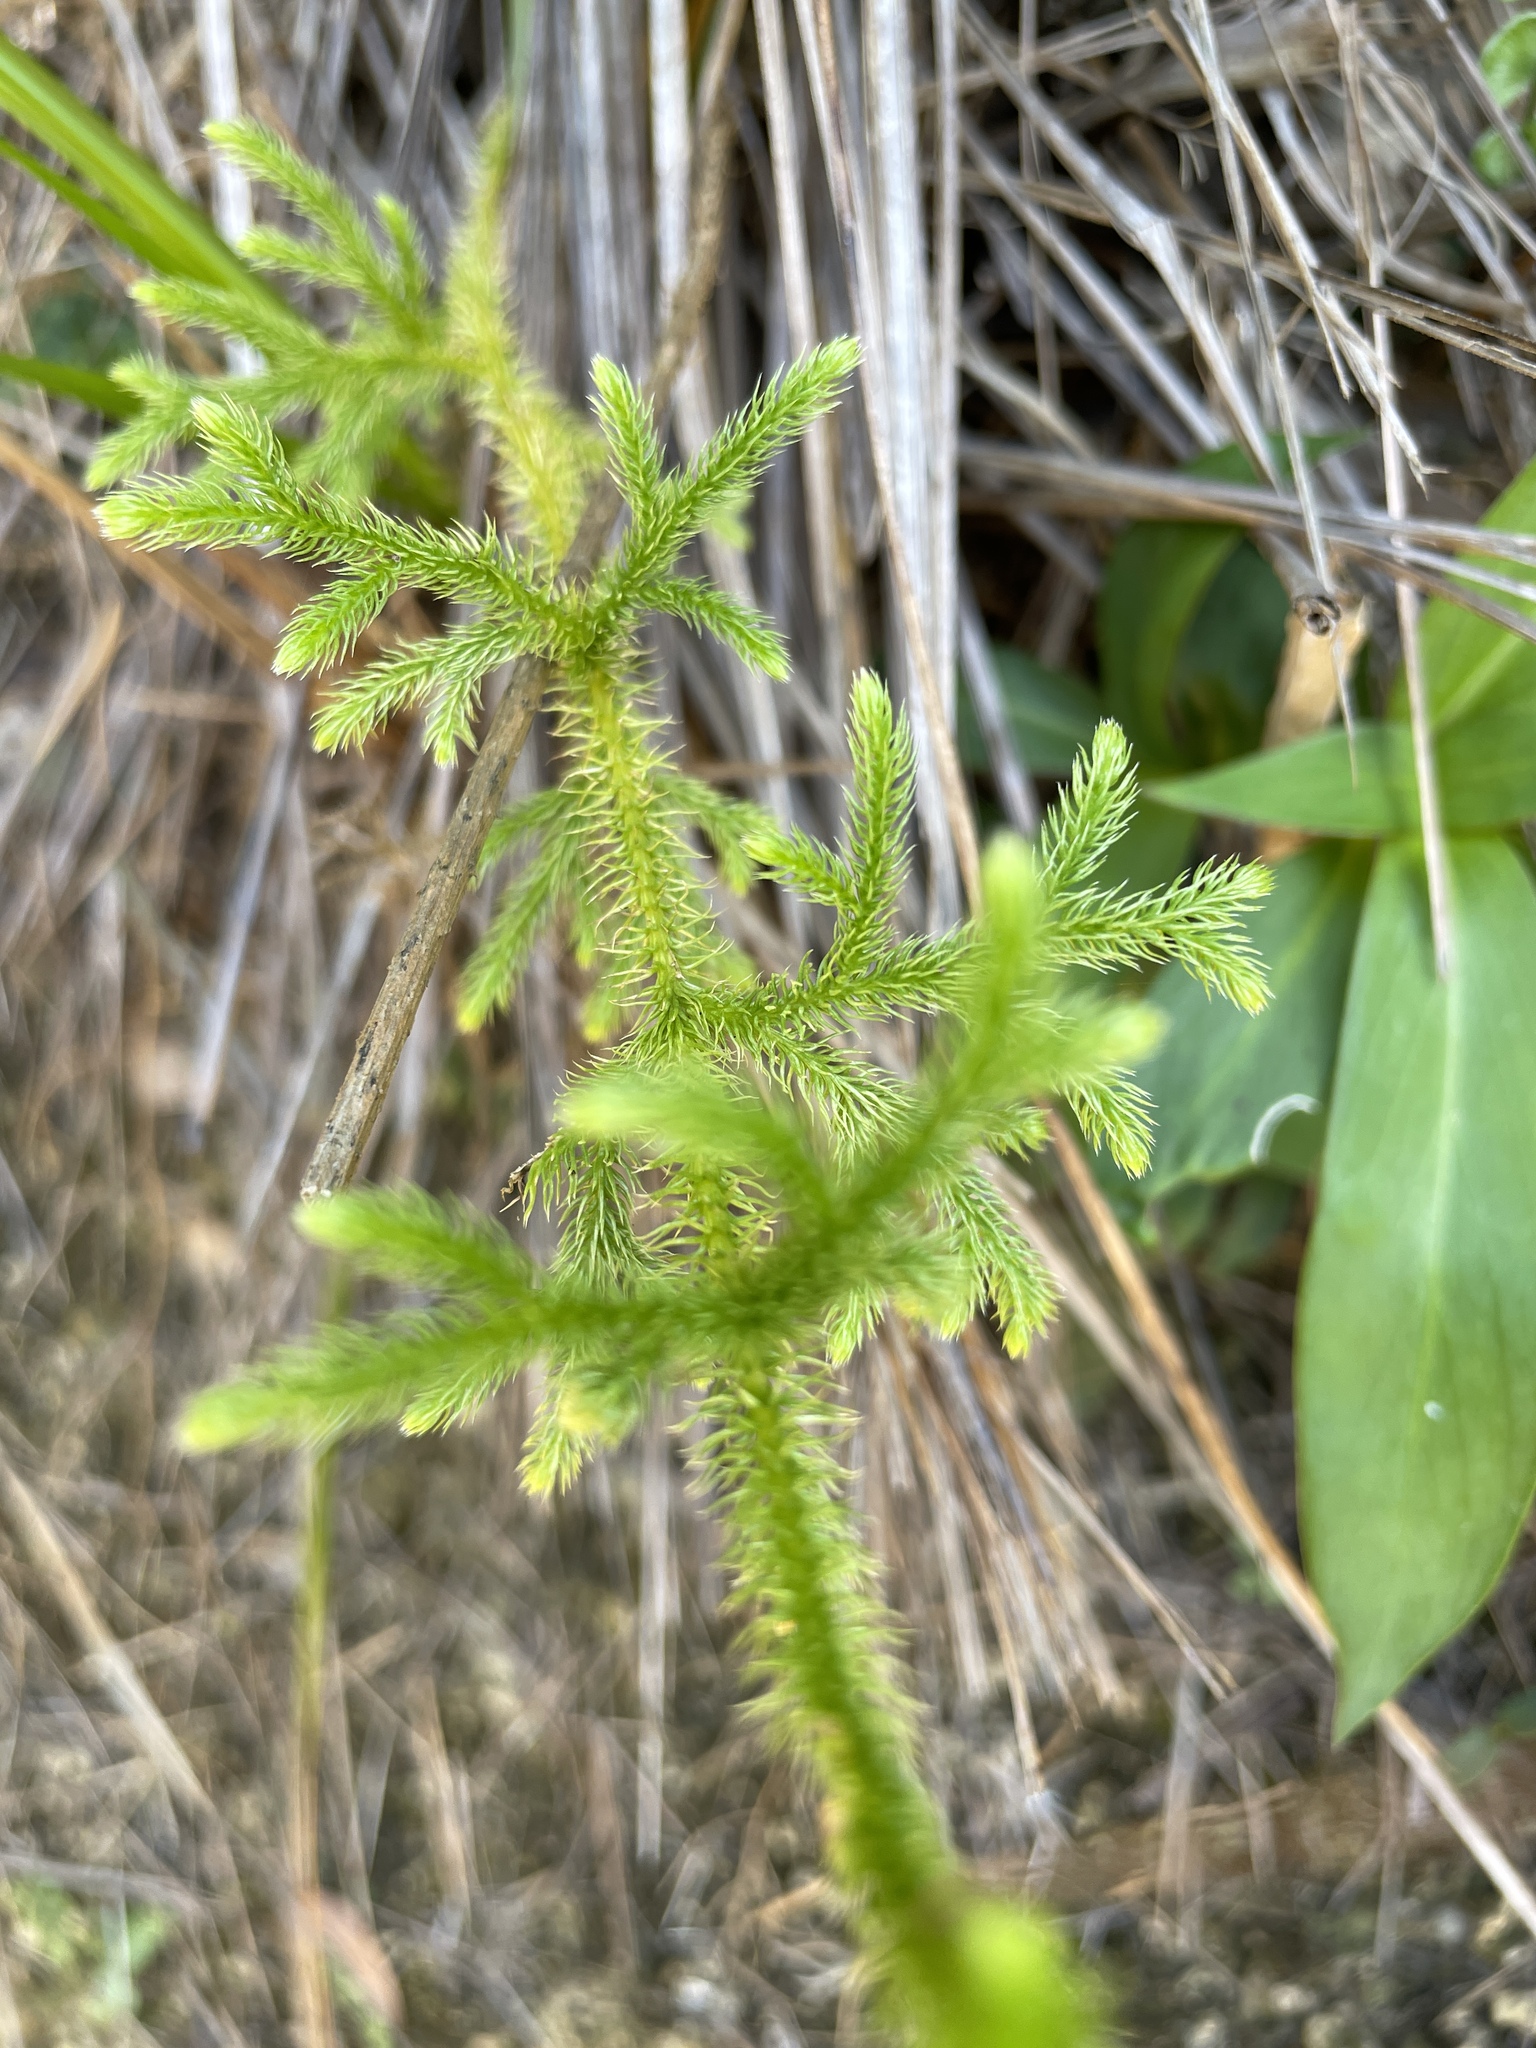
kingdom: Plantae
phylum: Tracheophyta
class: Lycopodiopsida
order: Lycopodiales
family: Lycopodiaceae
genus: Palhinhaea
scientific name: Palhinhaea cernua
